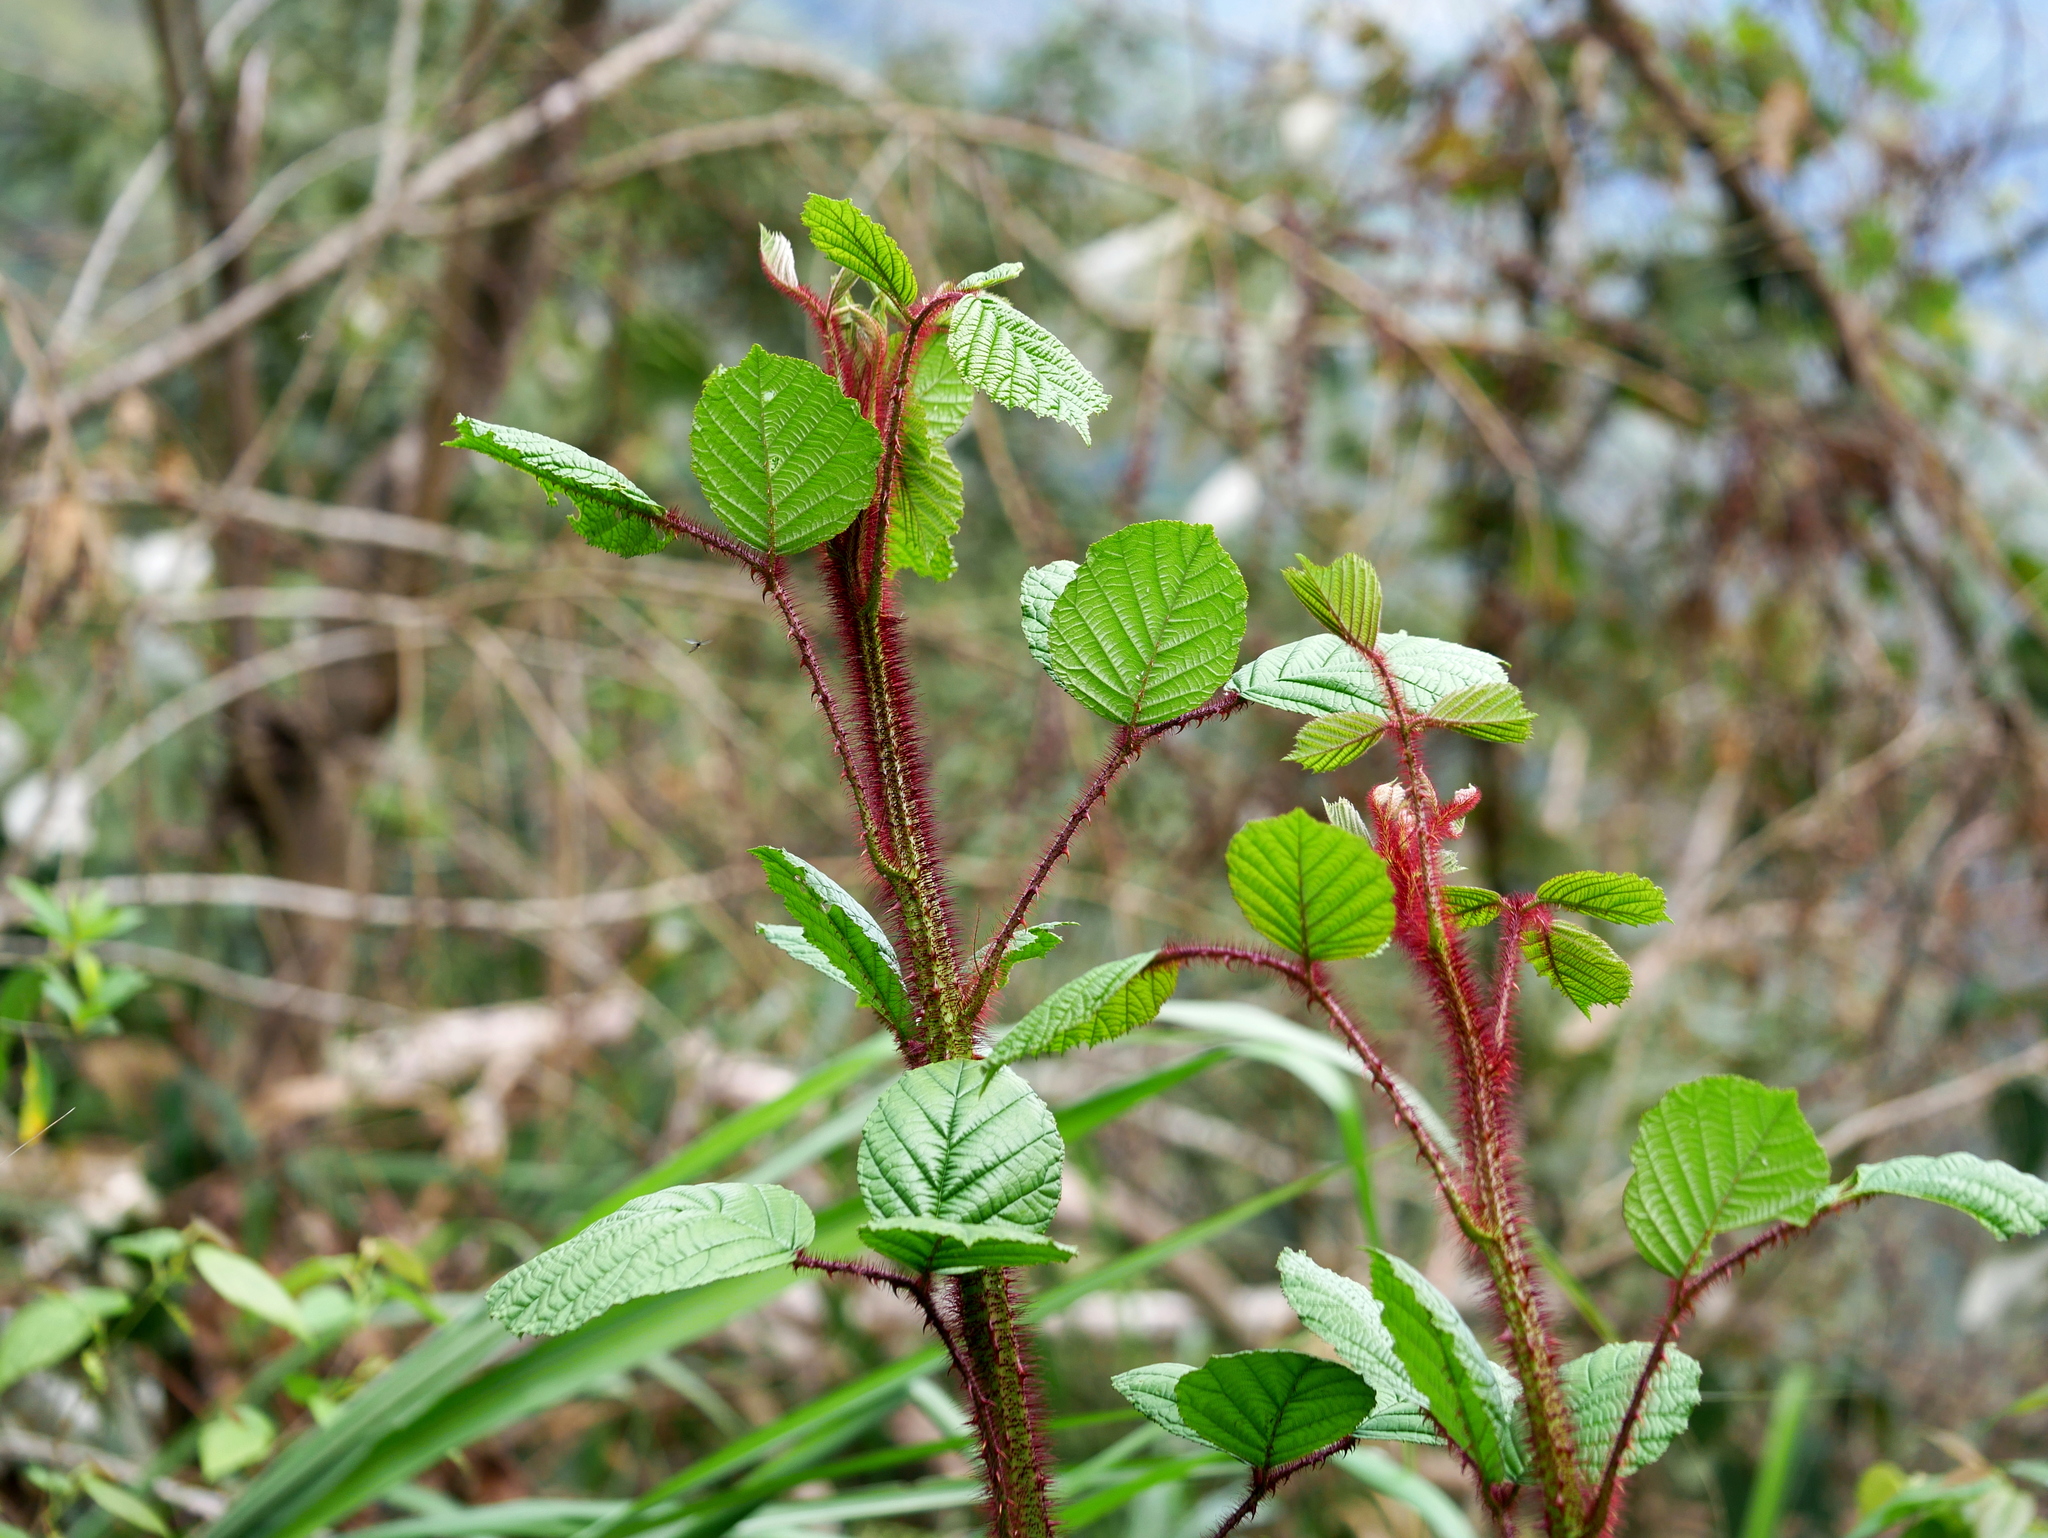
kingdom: Plantae
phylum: Tracheophyta
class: Magnoliopsida
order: Rosales
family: Rosaceae
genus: Rubus
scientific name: Rubus ellipticus
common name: Cheeseberry
